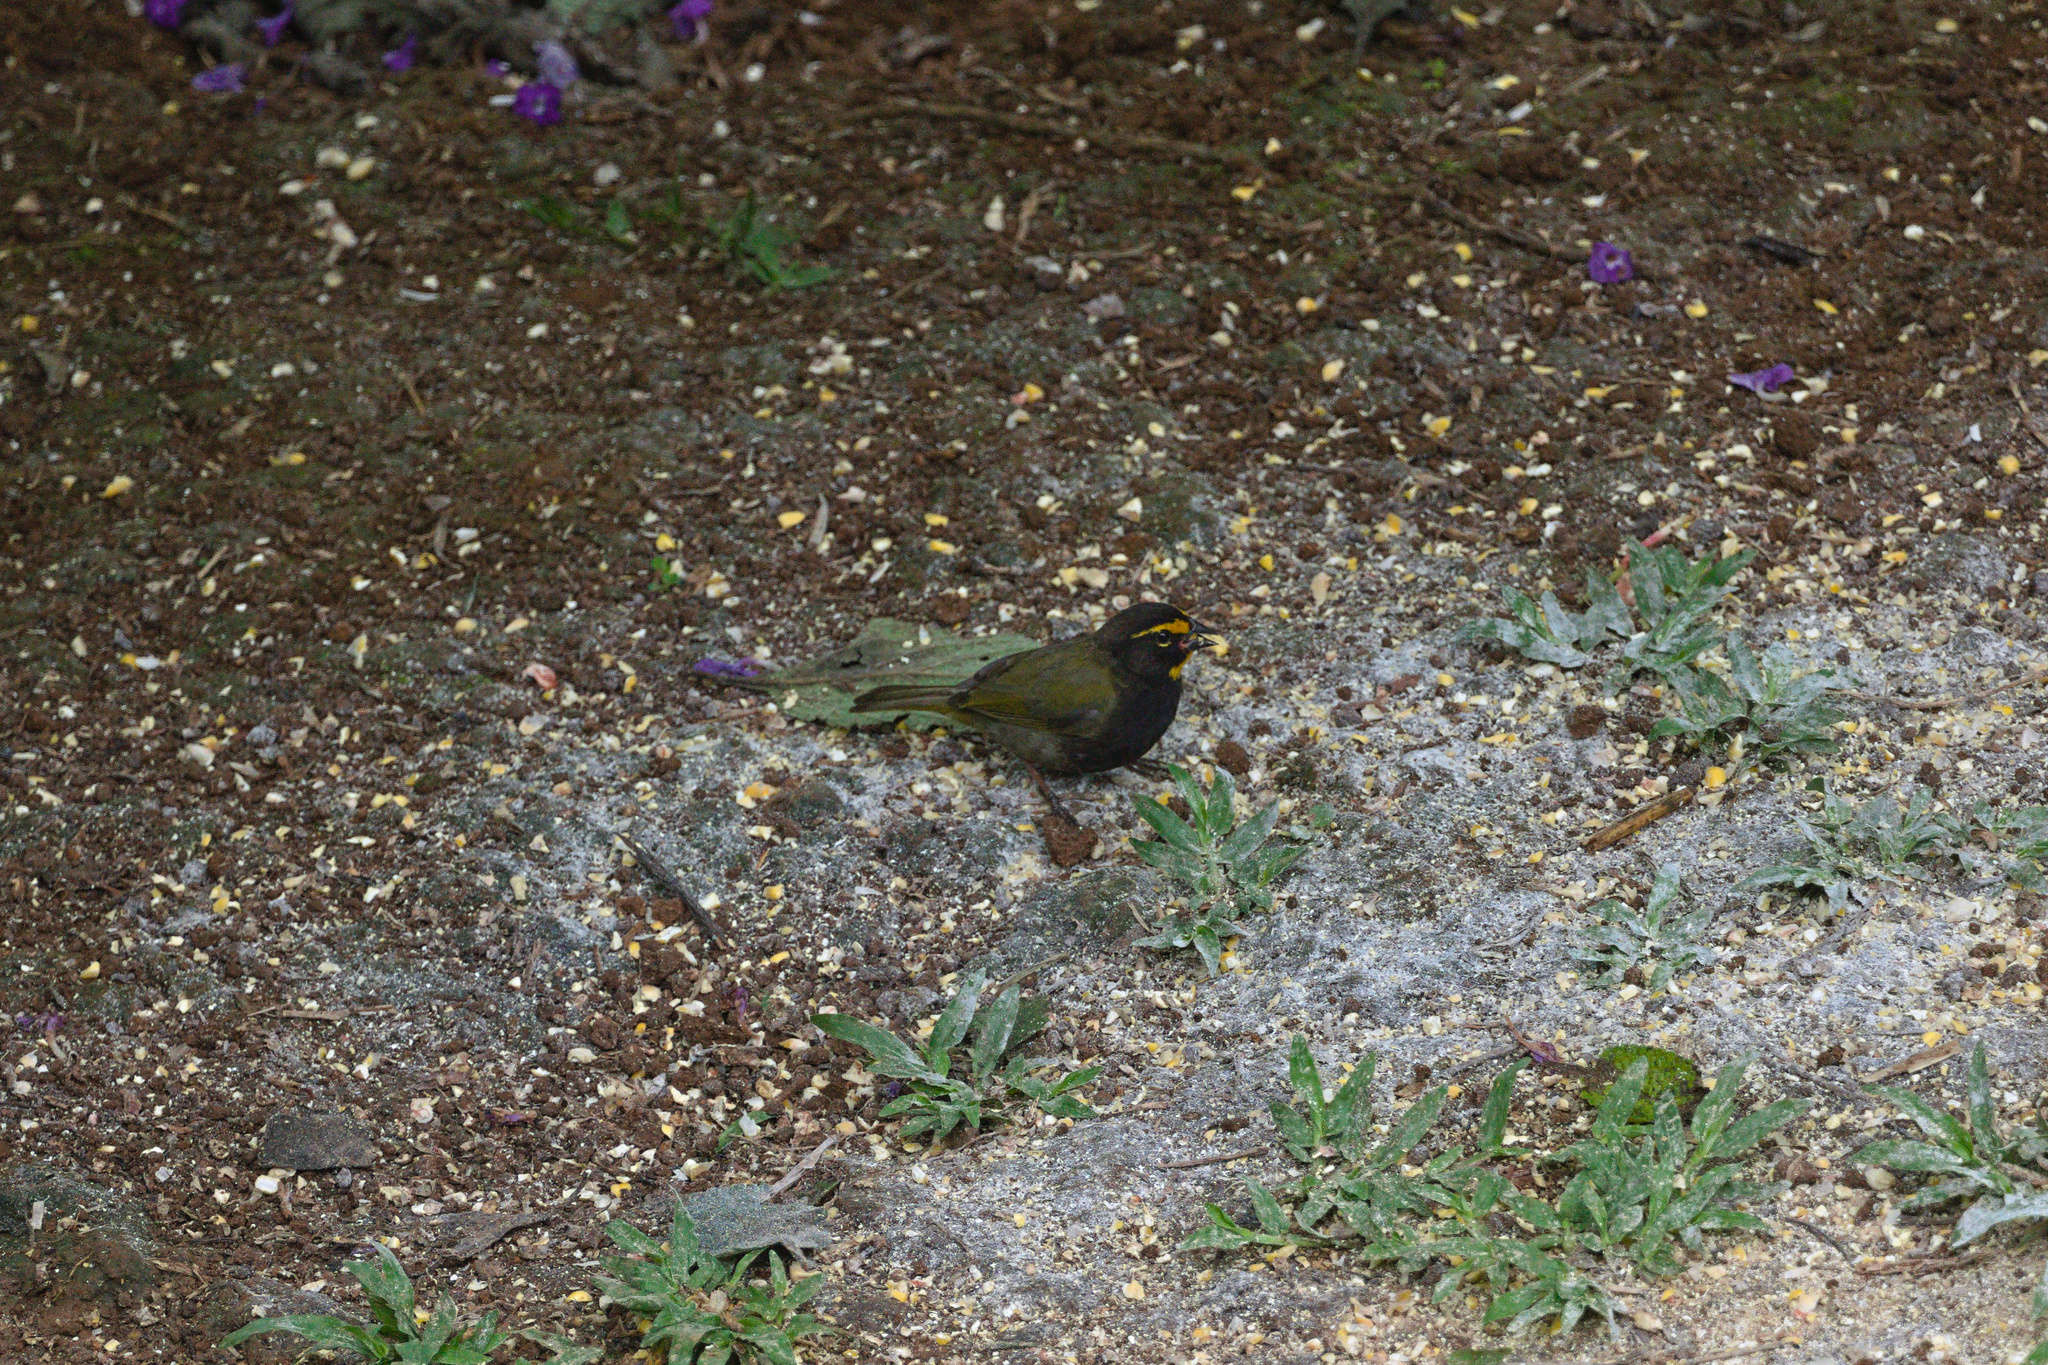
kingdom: Animalia
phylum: Chordata
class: Aves
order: Passeriformes
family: Thraupidae
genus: Tiaris
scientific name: Tiaris olivaceus
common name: Yellow-faced grassquit
